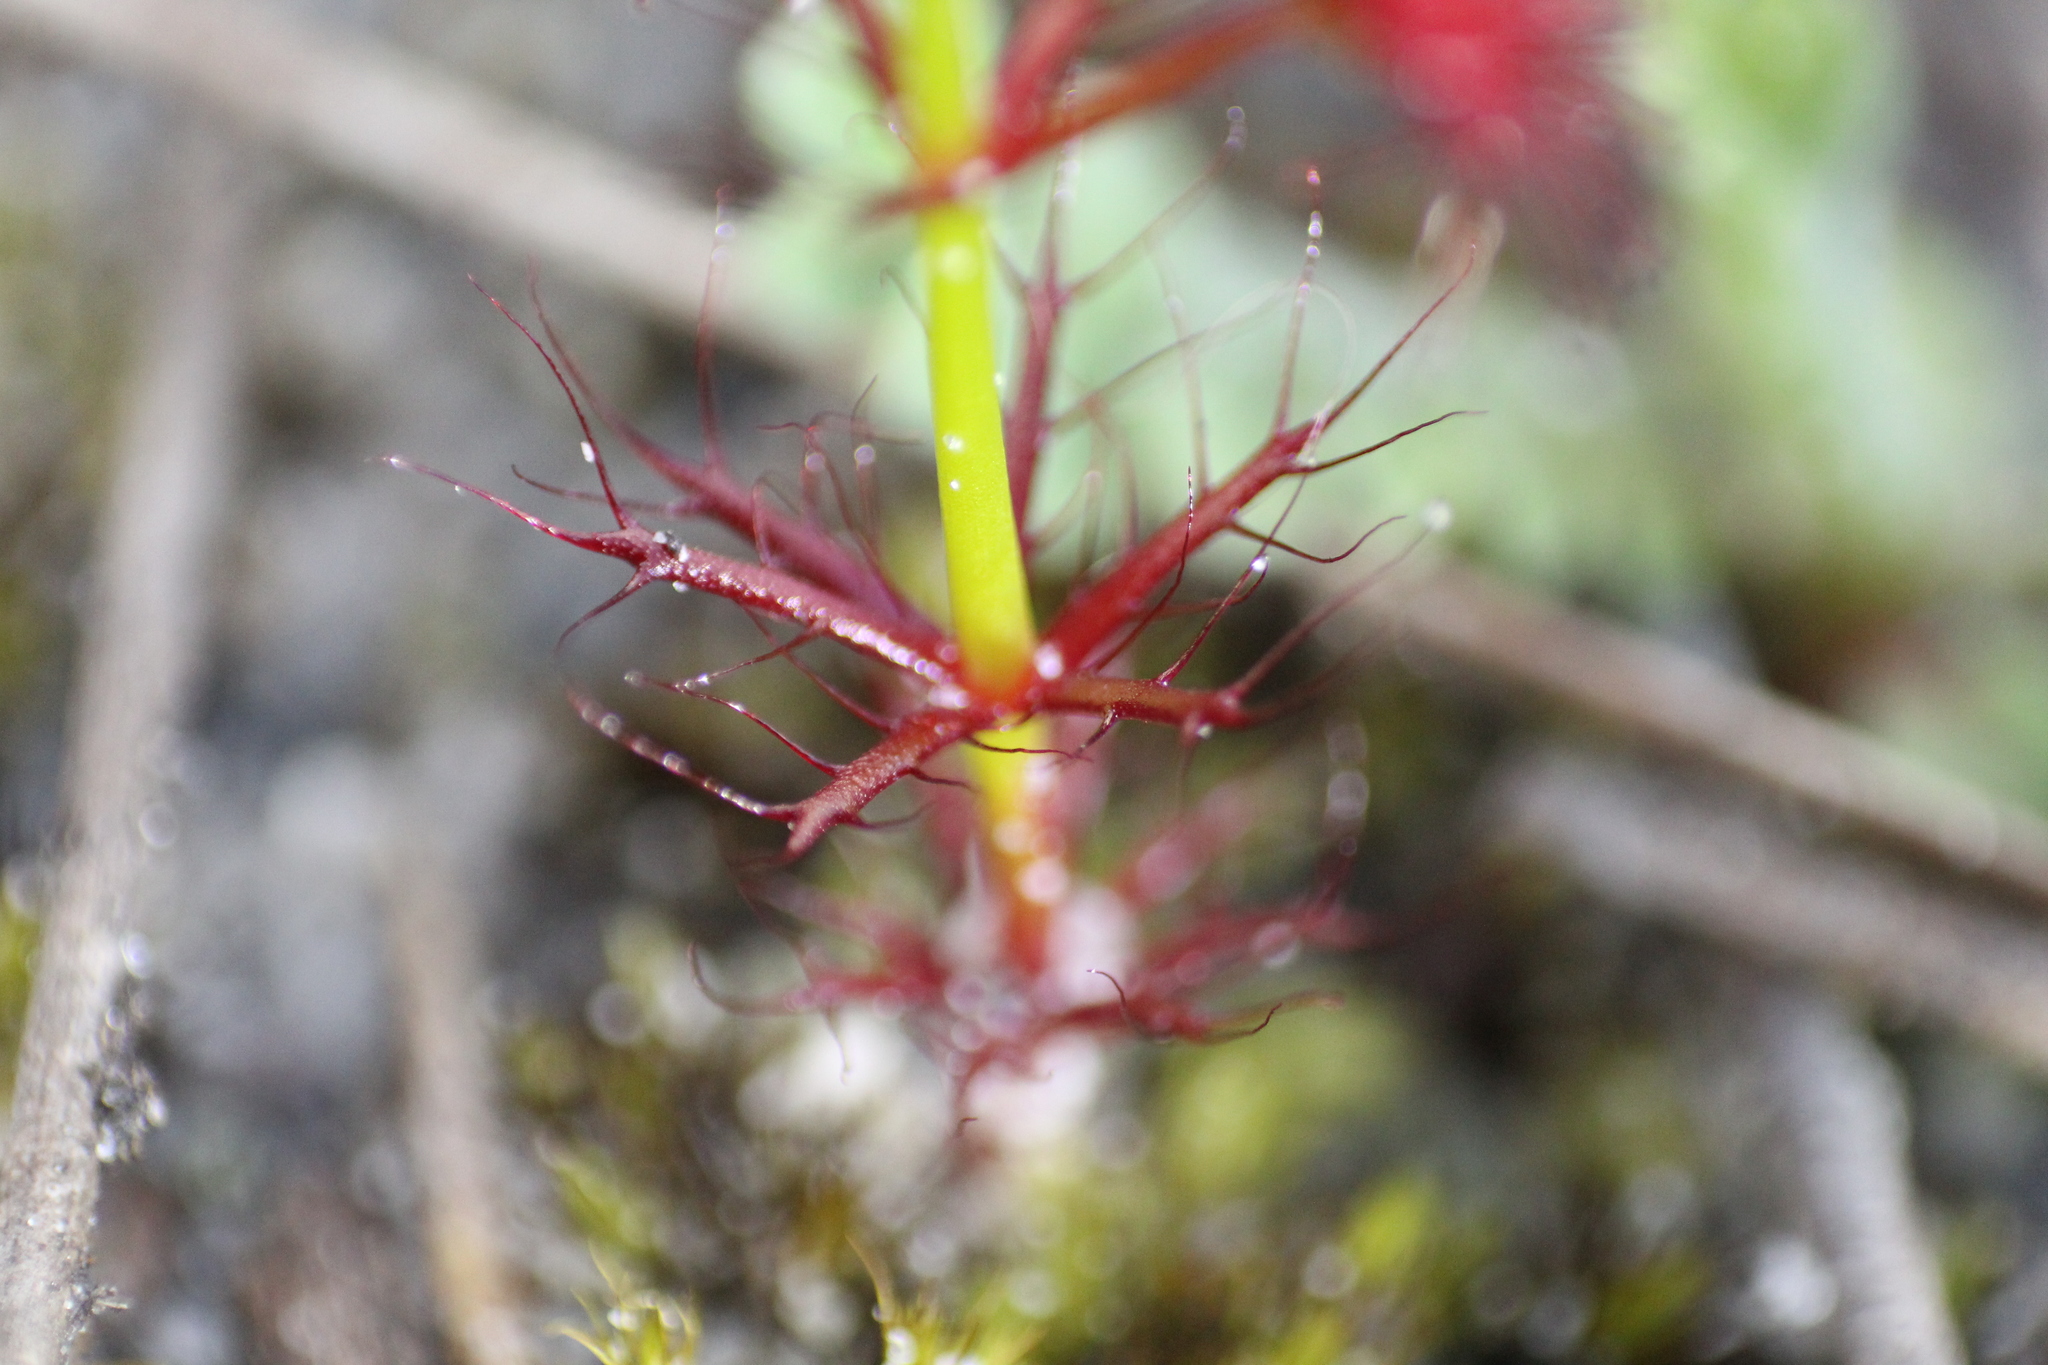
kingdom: Plantae
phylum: Tracheophyta
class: Magnoliopsida
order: Caryophyllales
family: Droseraceae
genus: Drosera
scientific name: Drosera fimbriata
